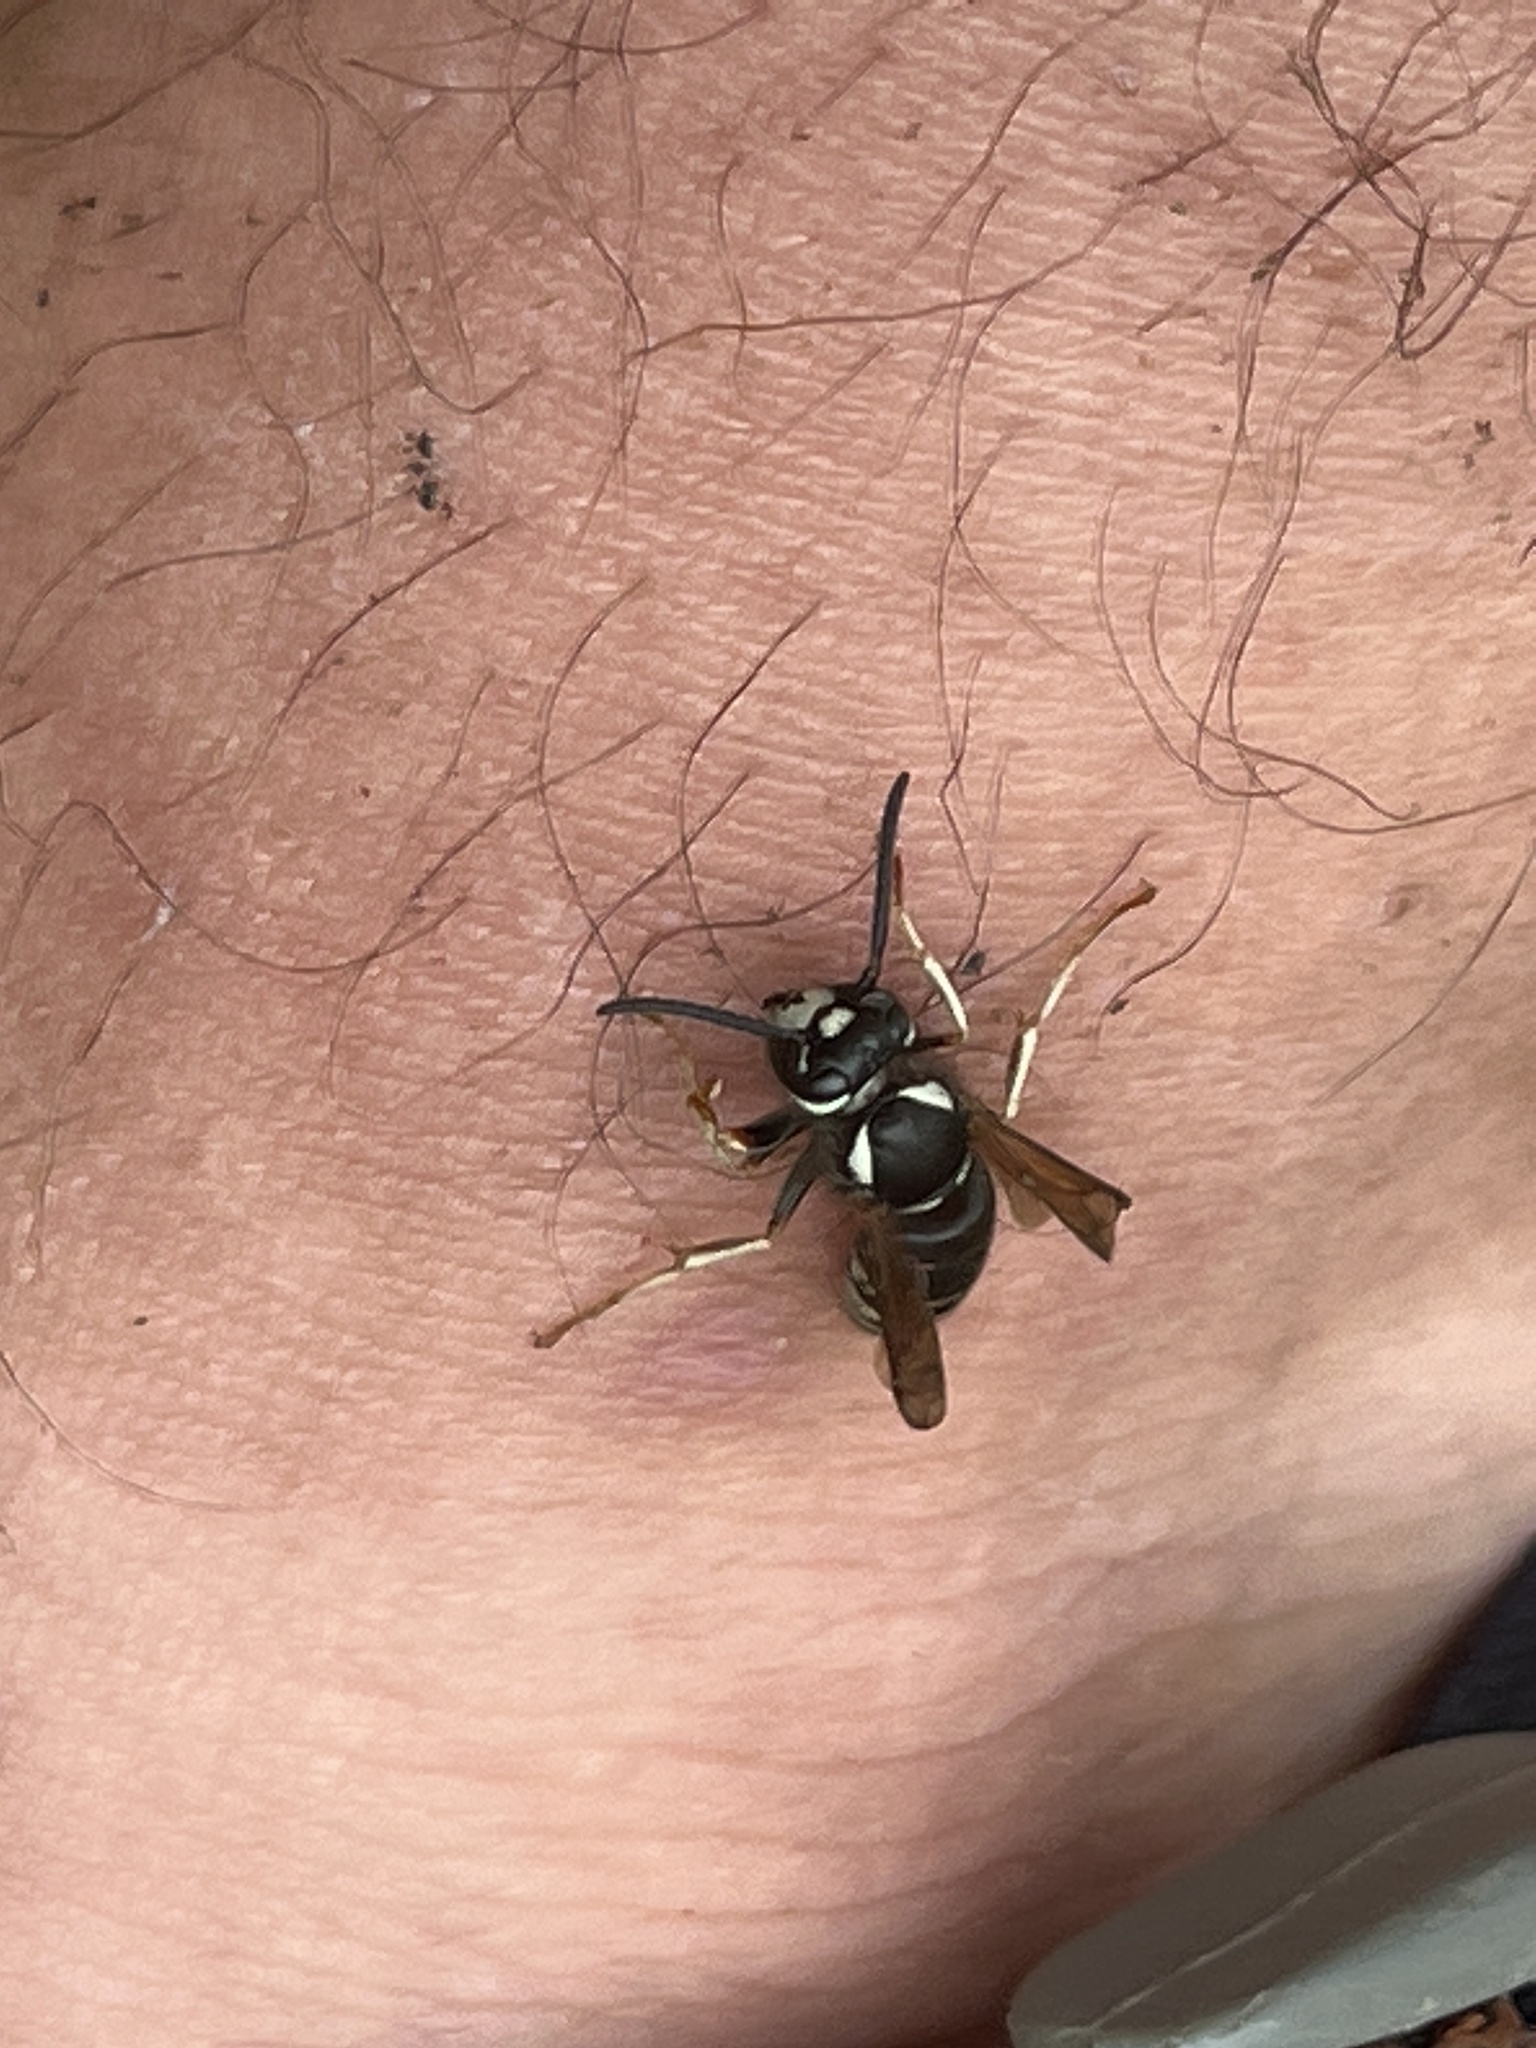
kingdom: Animalia
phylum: Arthropoda
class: Insecta
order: Hymenoptera
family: Vespidae
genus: Vespula
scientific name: Vespula consobrina
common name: Blackjacket
